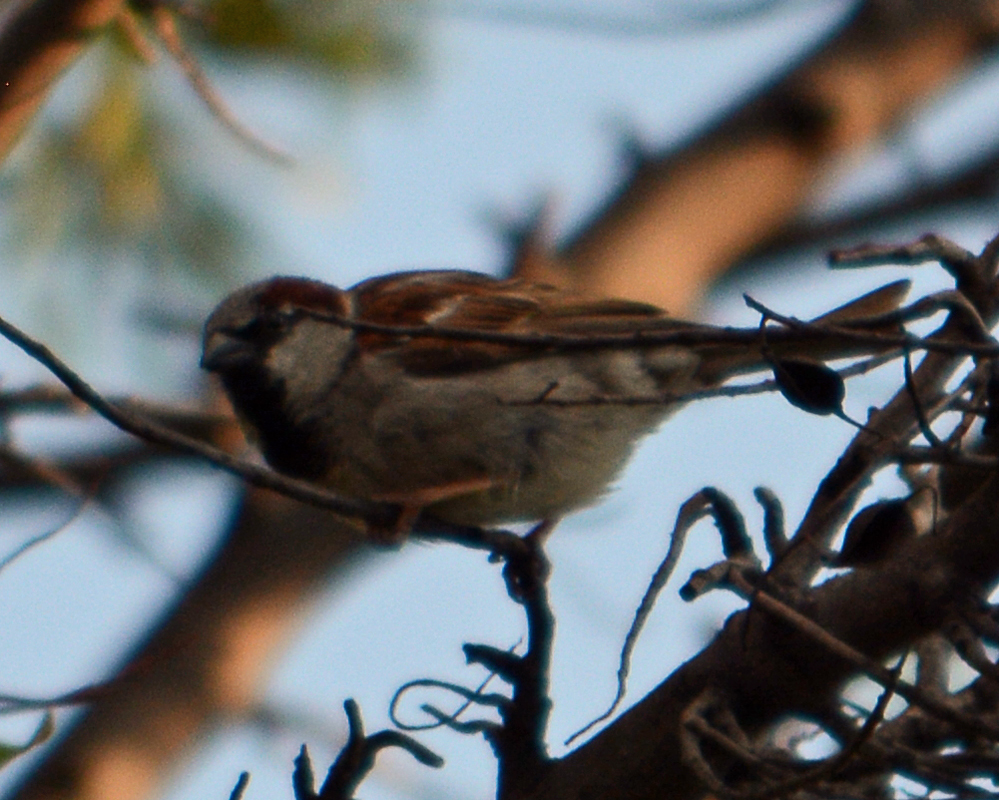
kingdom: Animalia
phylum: Chordata
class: Aves
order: Passeriformes
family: Passeridae
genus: Passer
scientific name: Passer domesticus
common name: House sparrow
